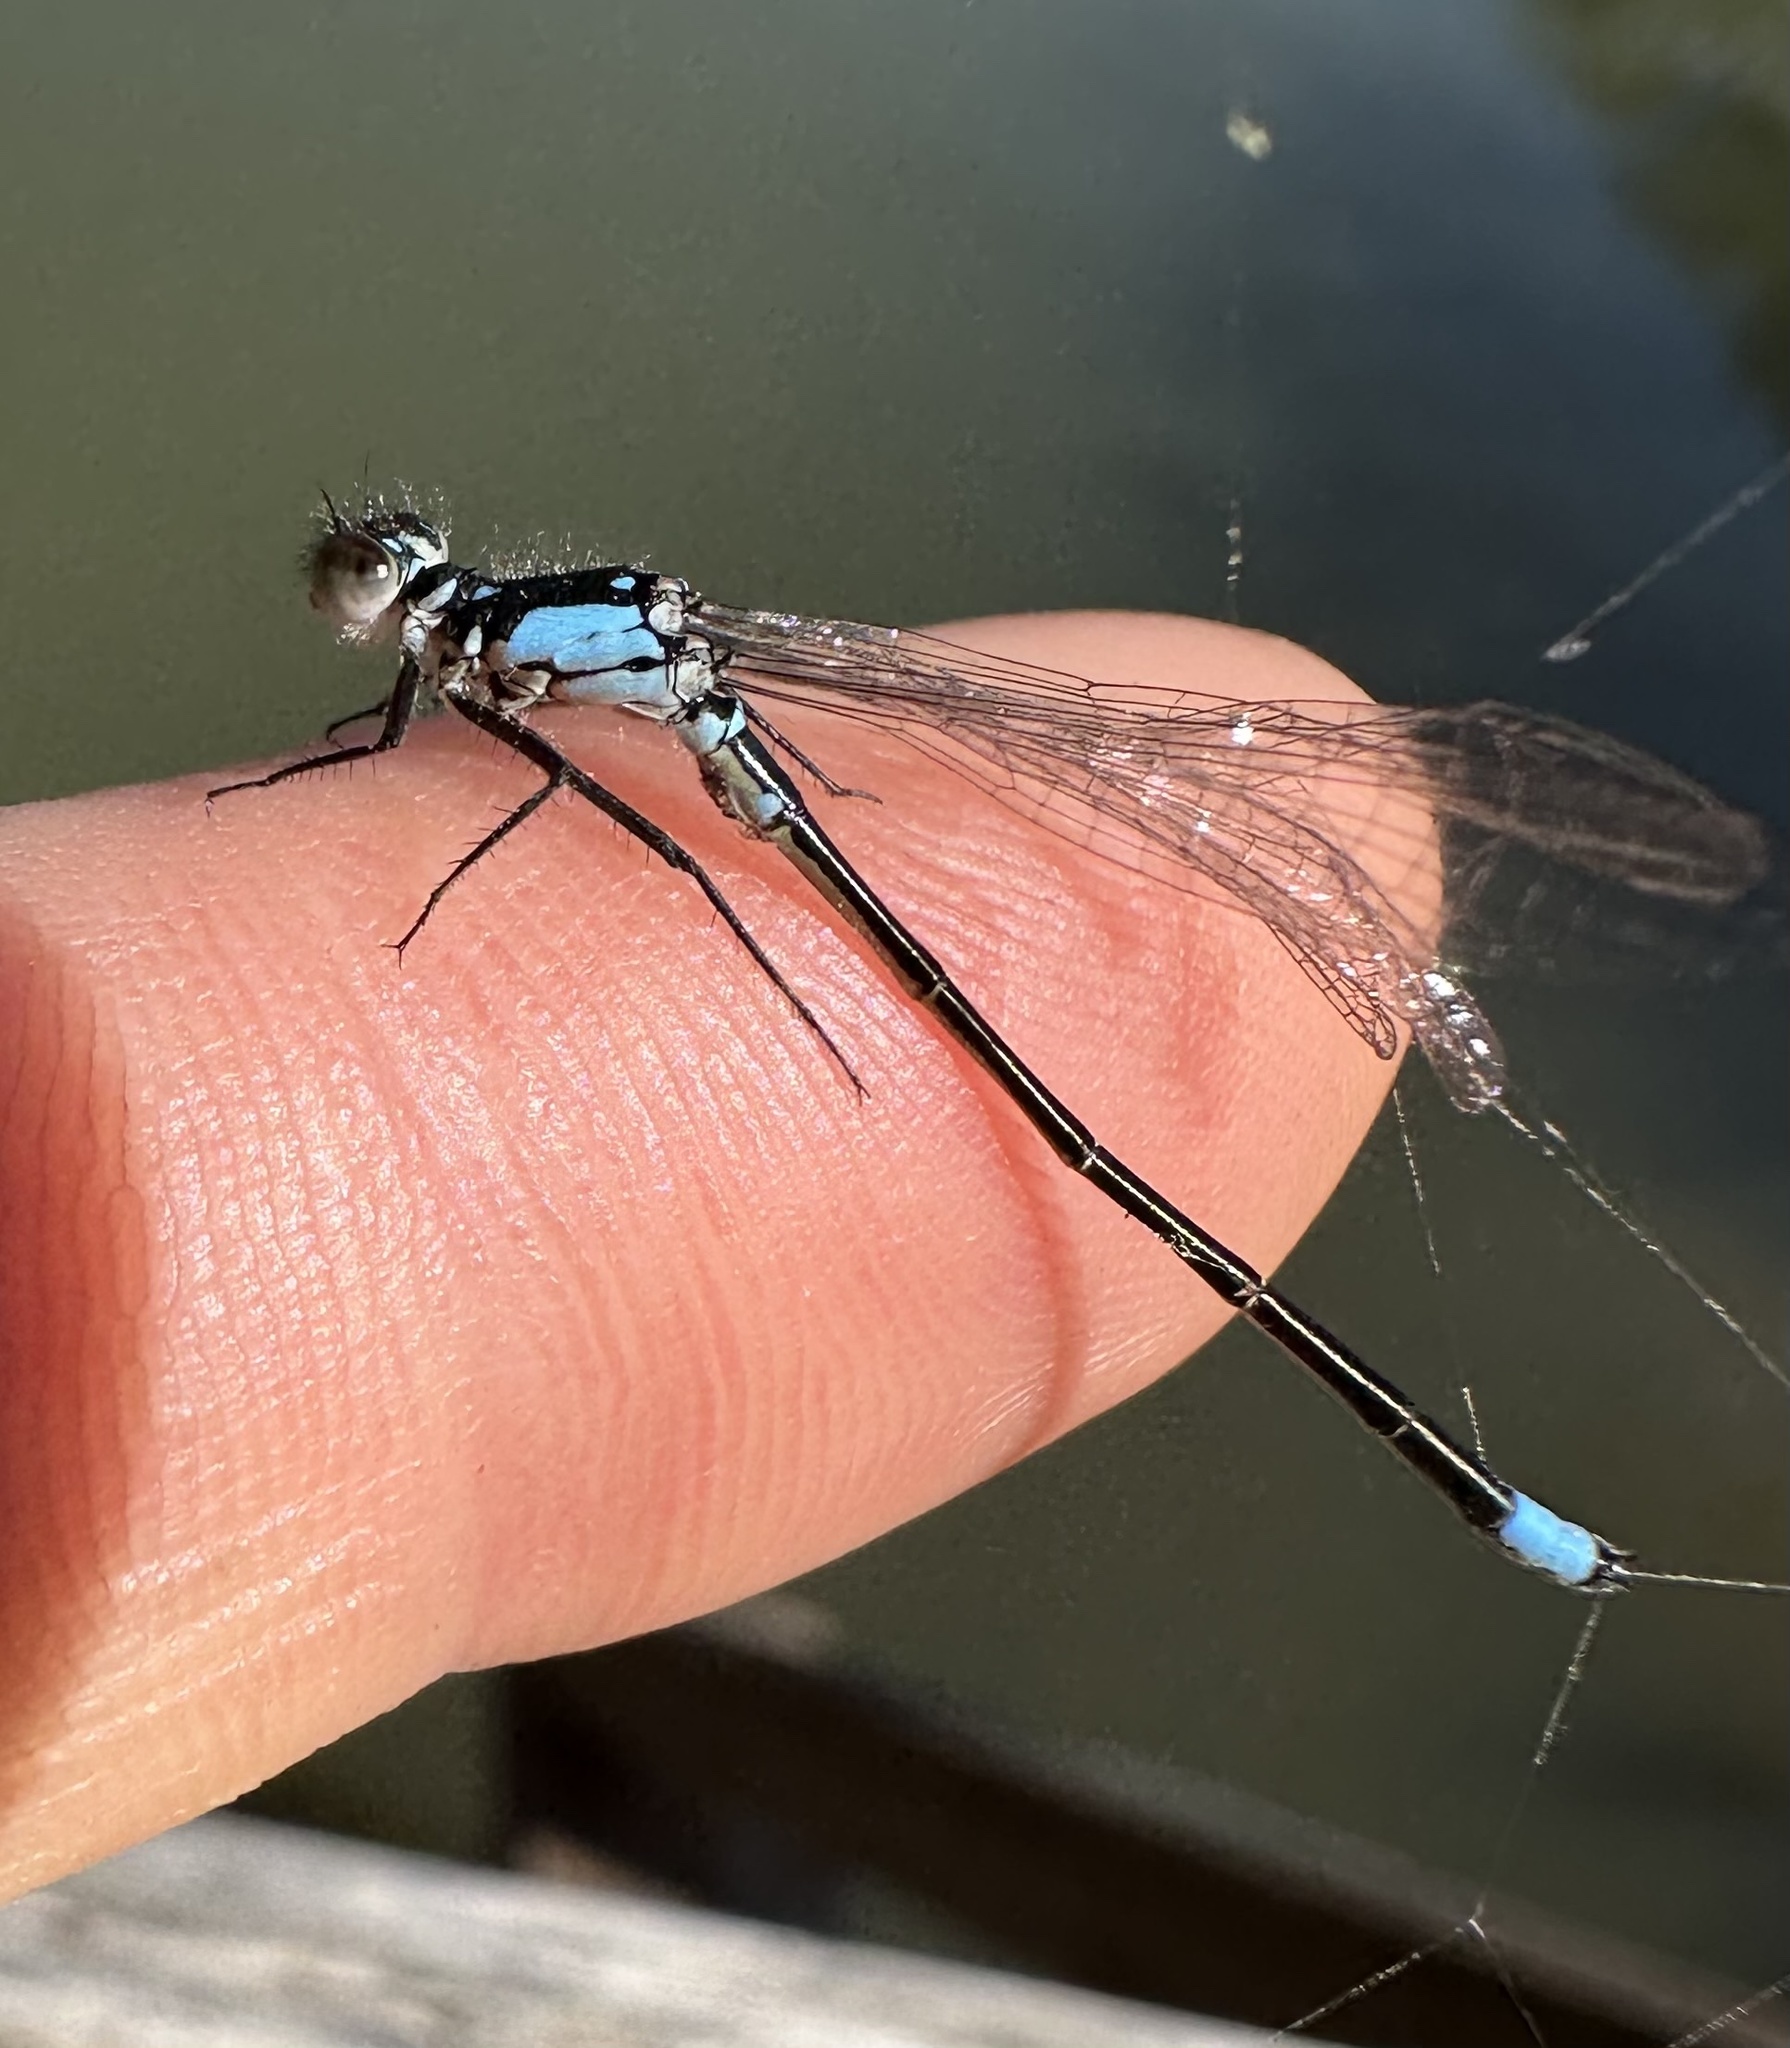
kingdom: Animalia
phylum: Arthropoda
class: Insecta
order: Odonata
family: Coenagrionidae
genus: Ischnura
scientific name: Ischnura cervula
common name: Pacific forktail
